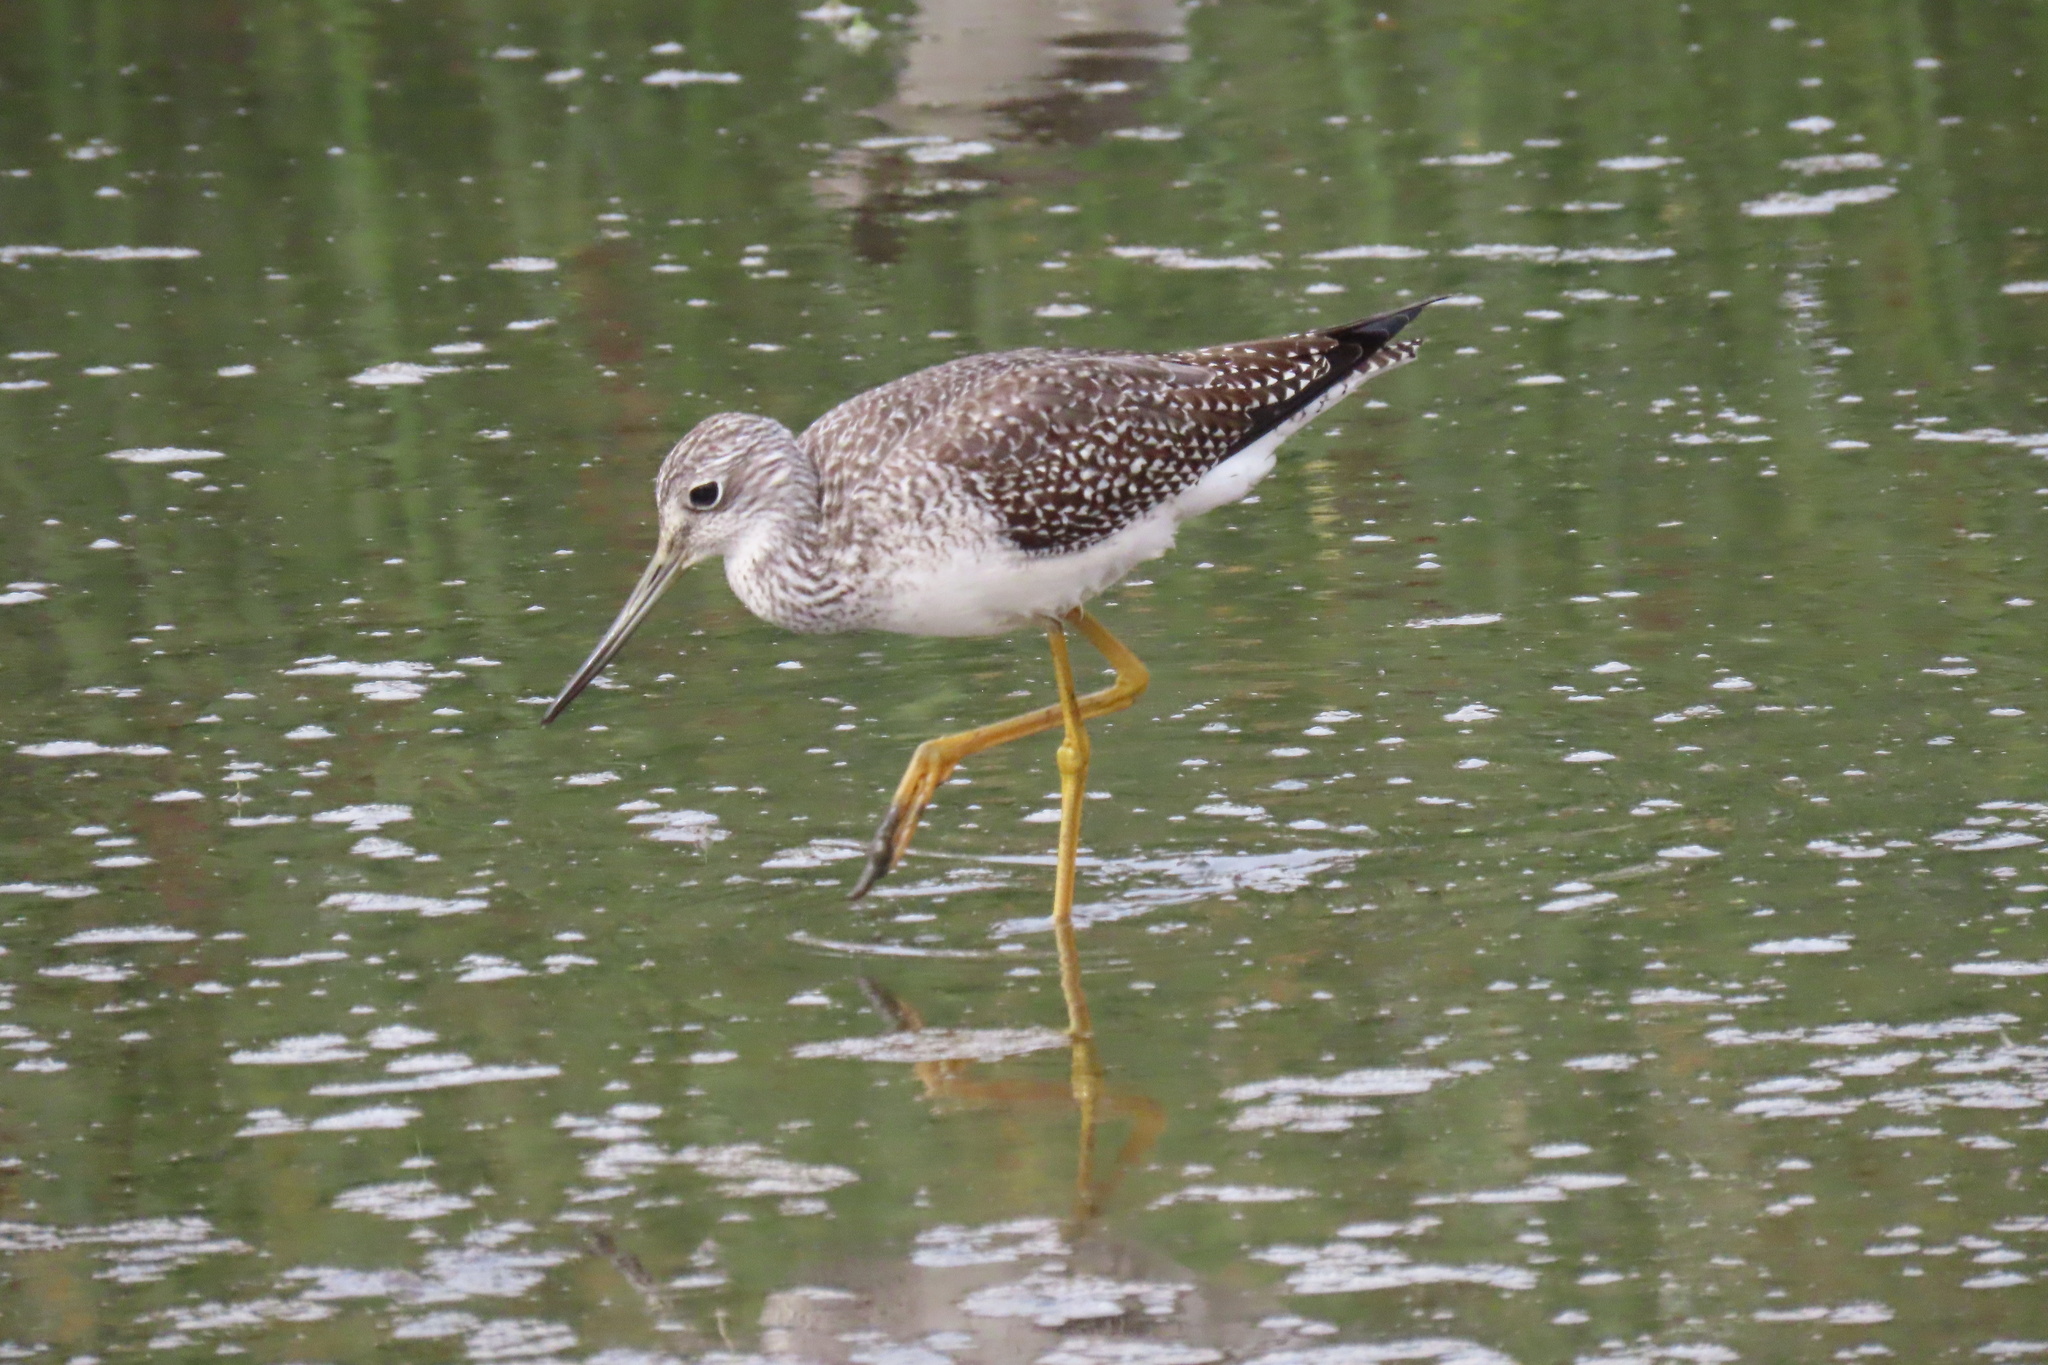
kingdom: Animalia
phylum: Chordata
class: Aves
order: Charadriiformes
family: Scolopacidae
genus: Tringa
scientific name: Tringa melanoleuca
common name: Greater yellowlegs
